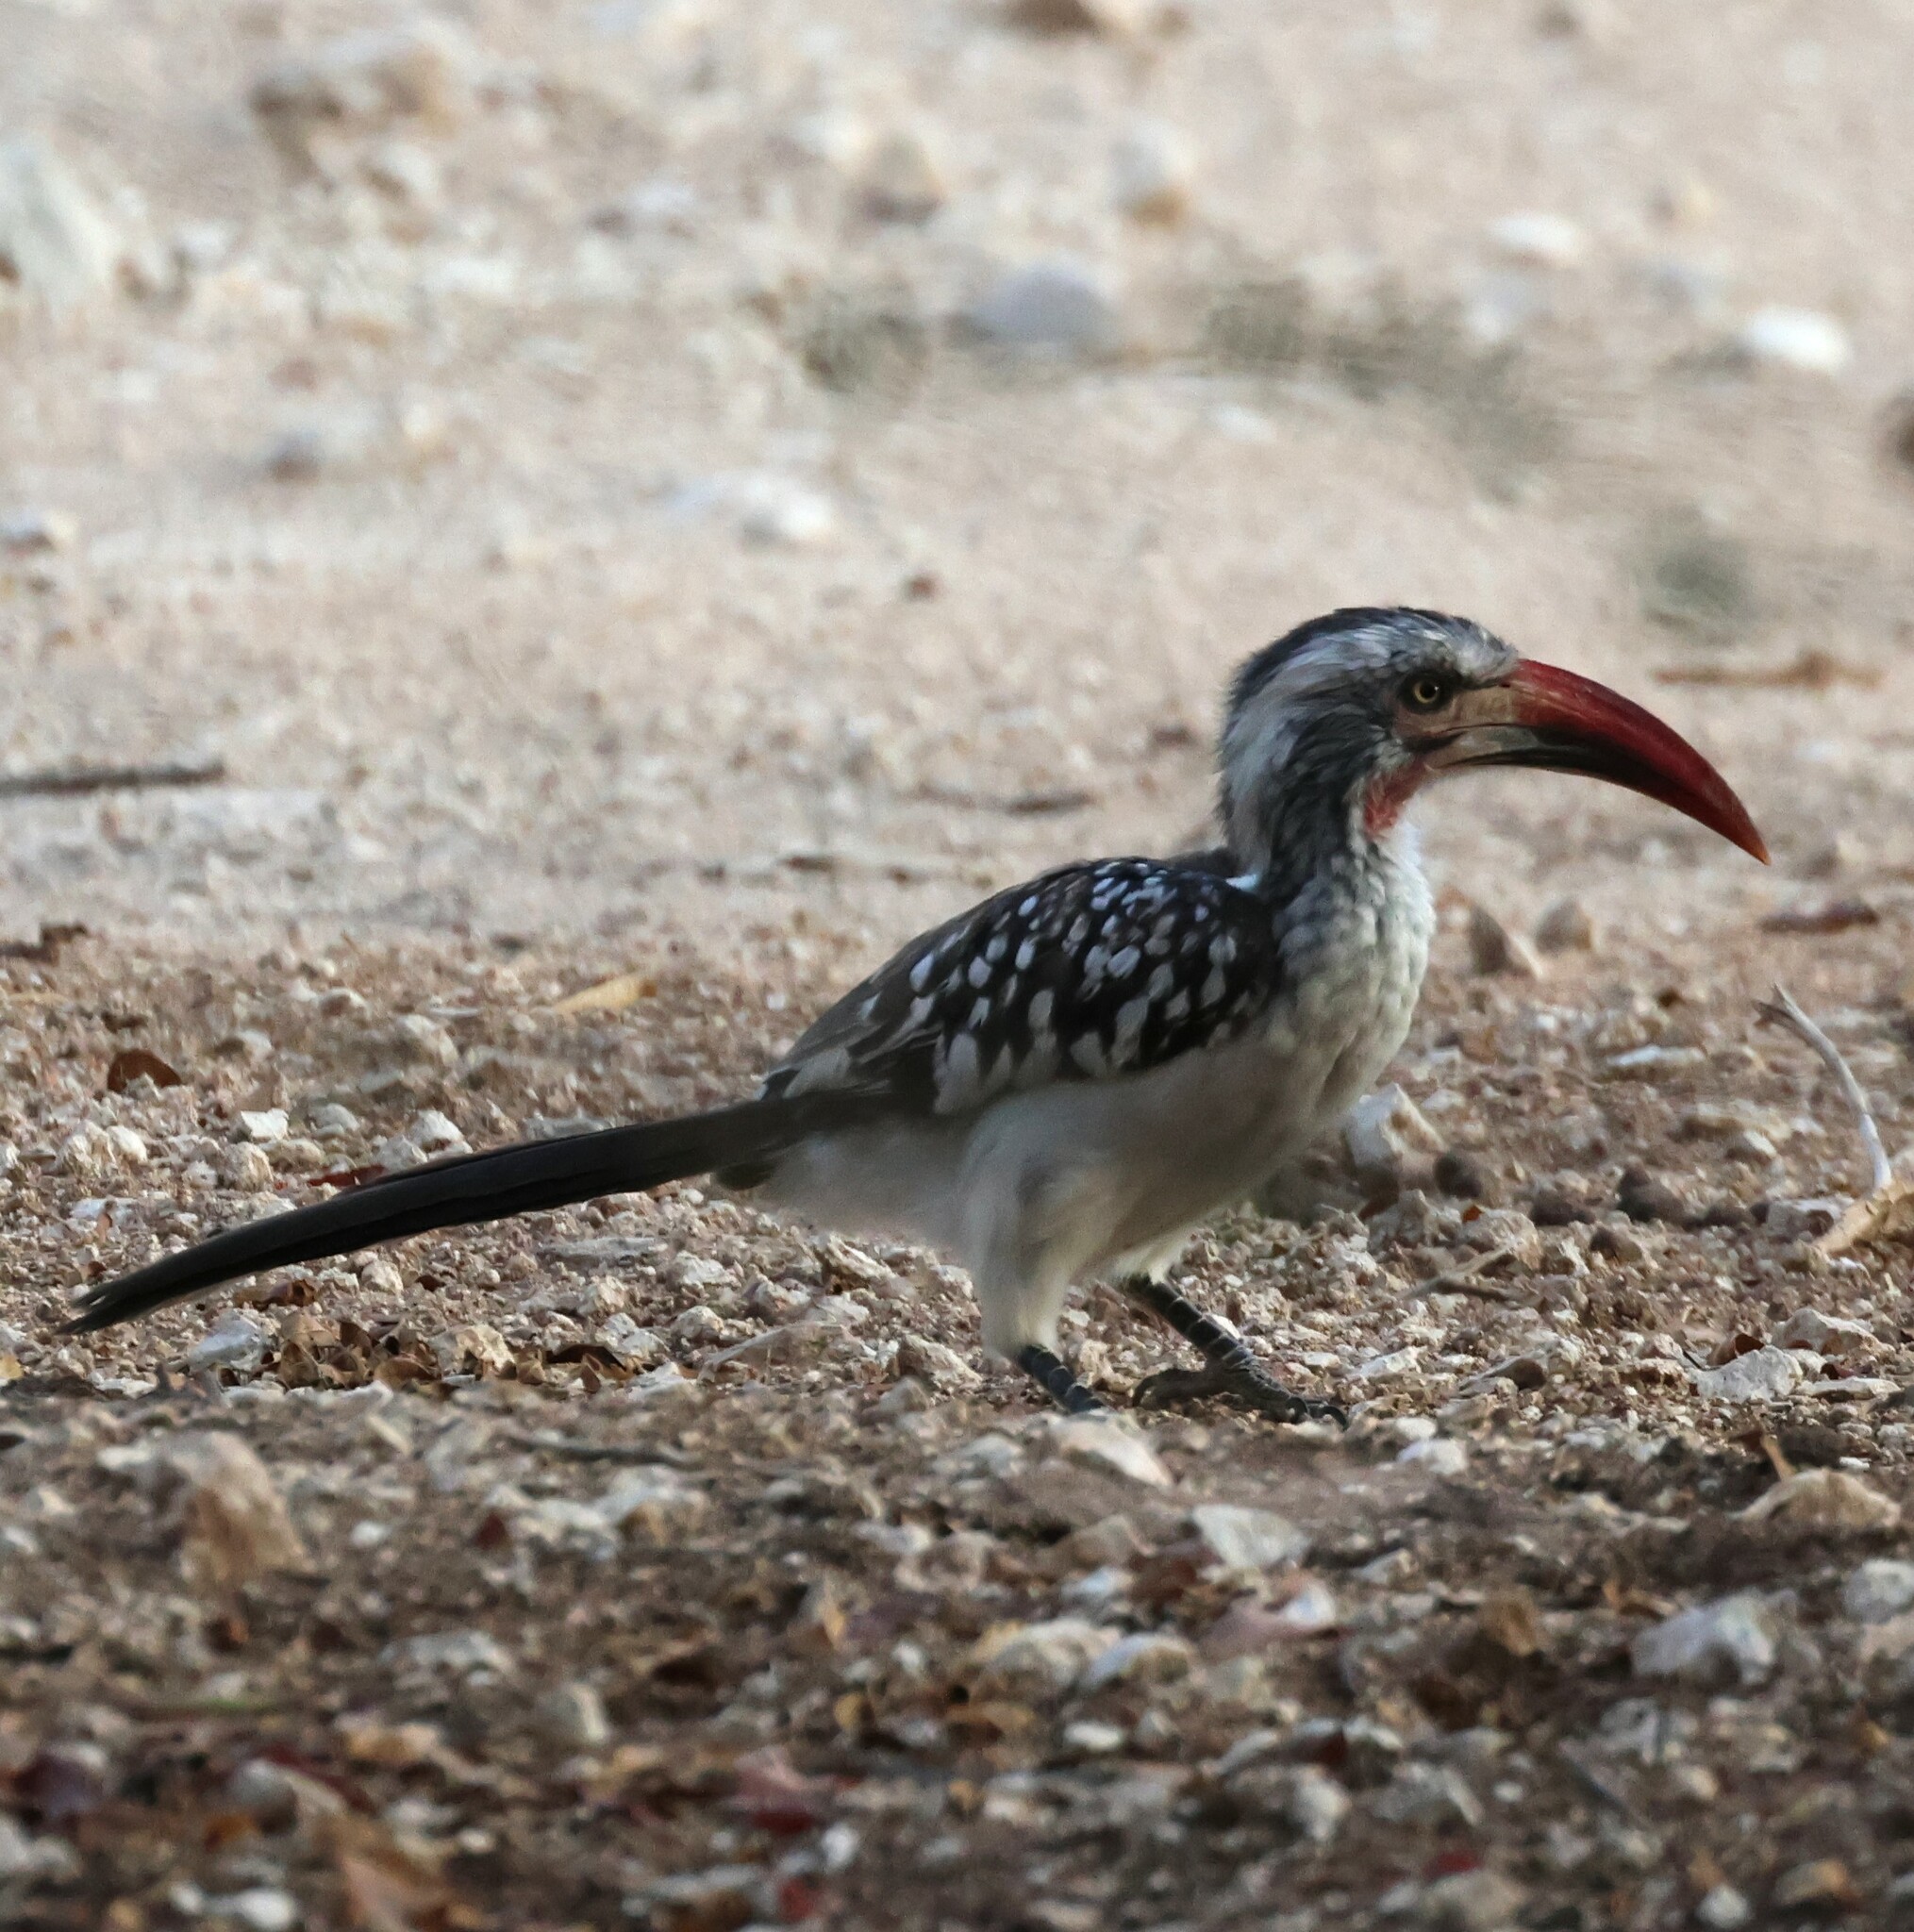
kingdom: Animalia
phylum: Chordata
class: Aves
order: Bucerotiformes
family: Bucerotidae
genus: Tockus
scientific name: Tockus rufirostris
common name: Southern red-billed hornbill
